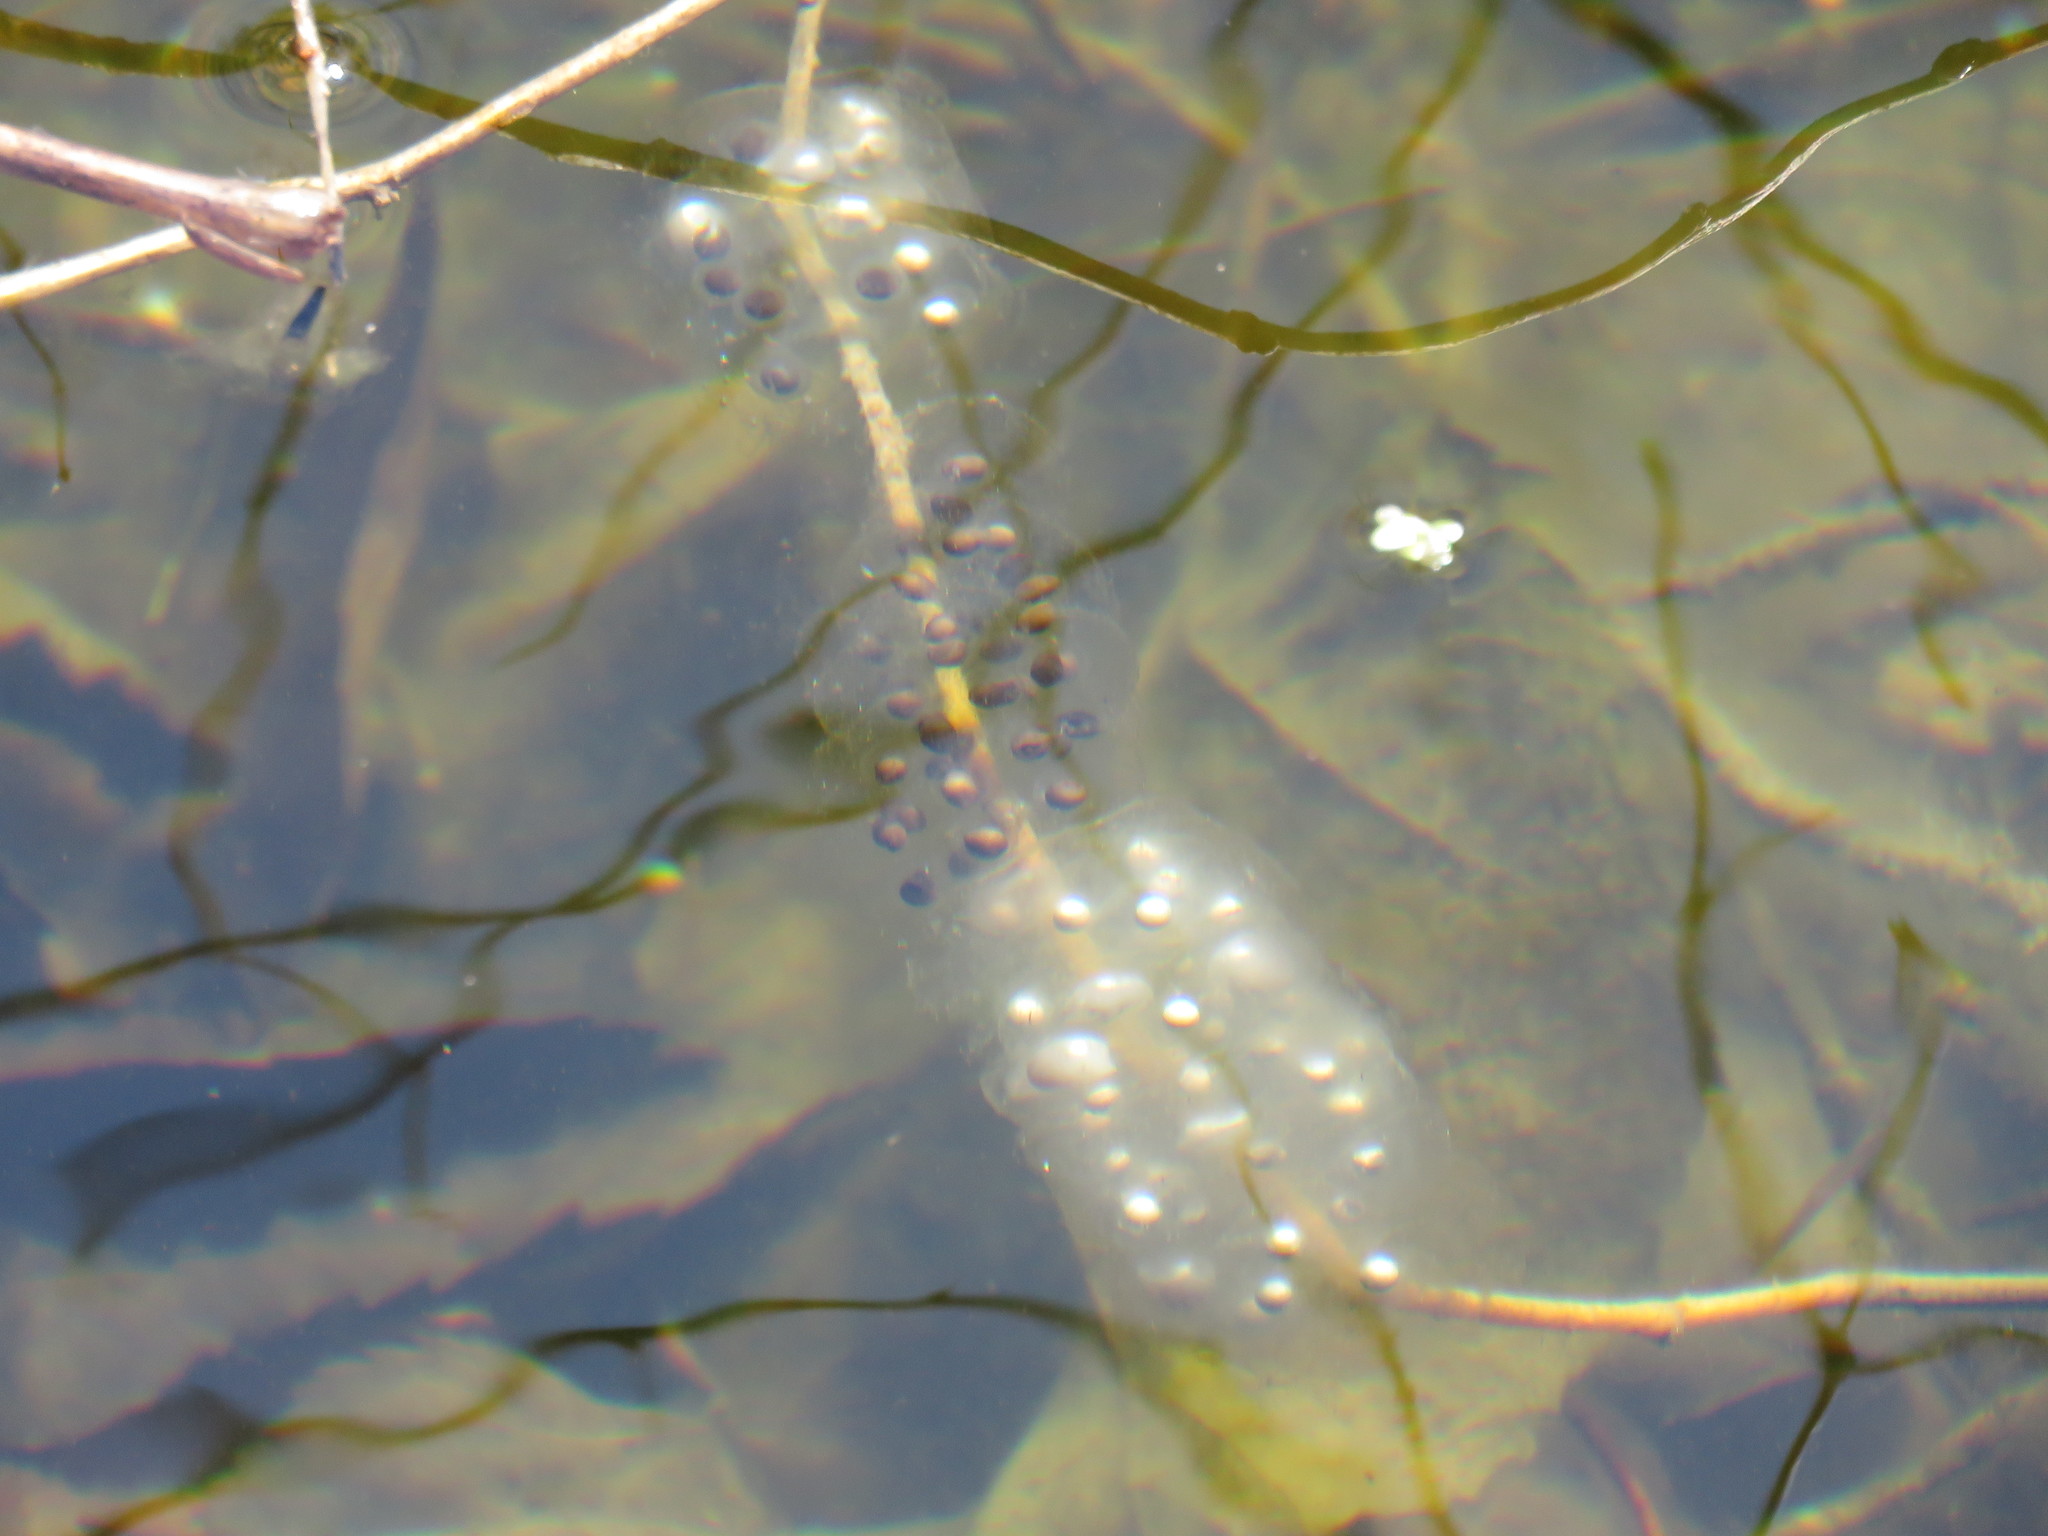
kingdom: Animalia
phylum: Chordata
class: Amphibia
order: Caudata
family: Ambystomatidae
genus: Ambystoma
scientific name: Ambystoma unisexual
